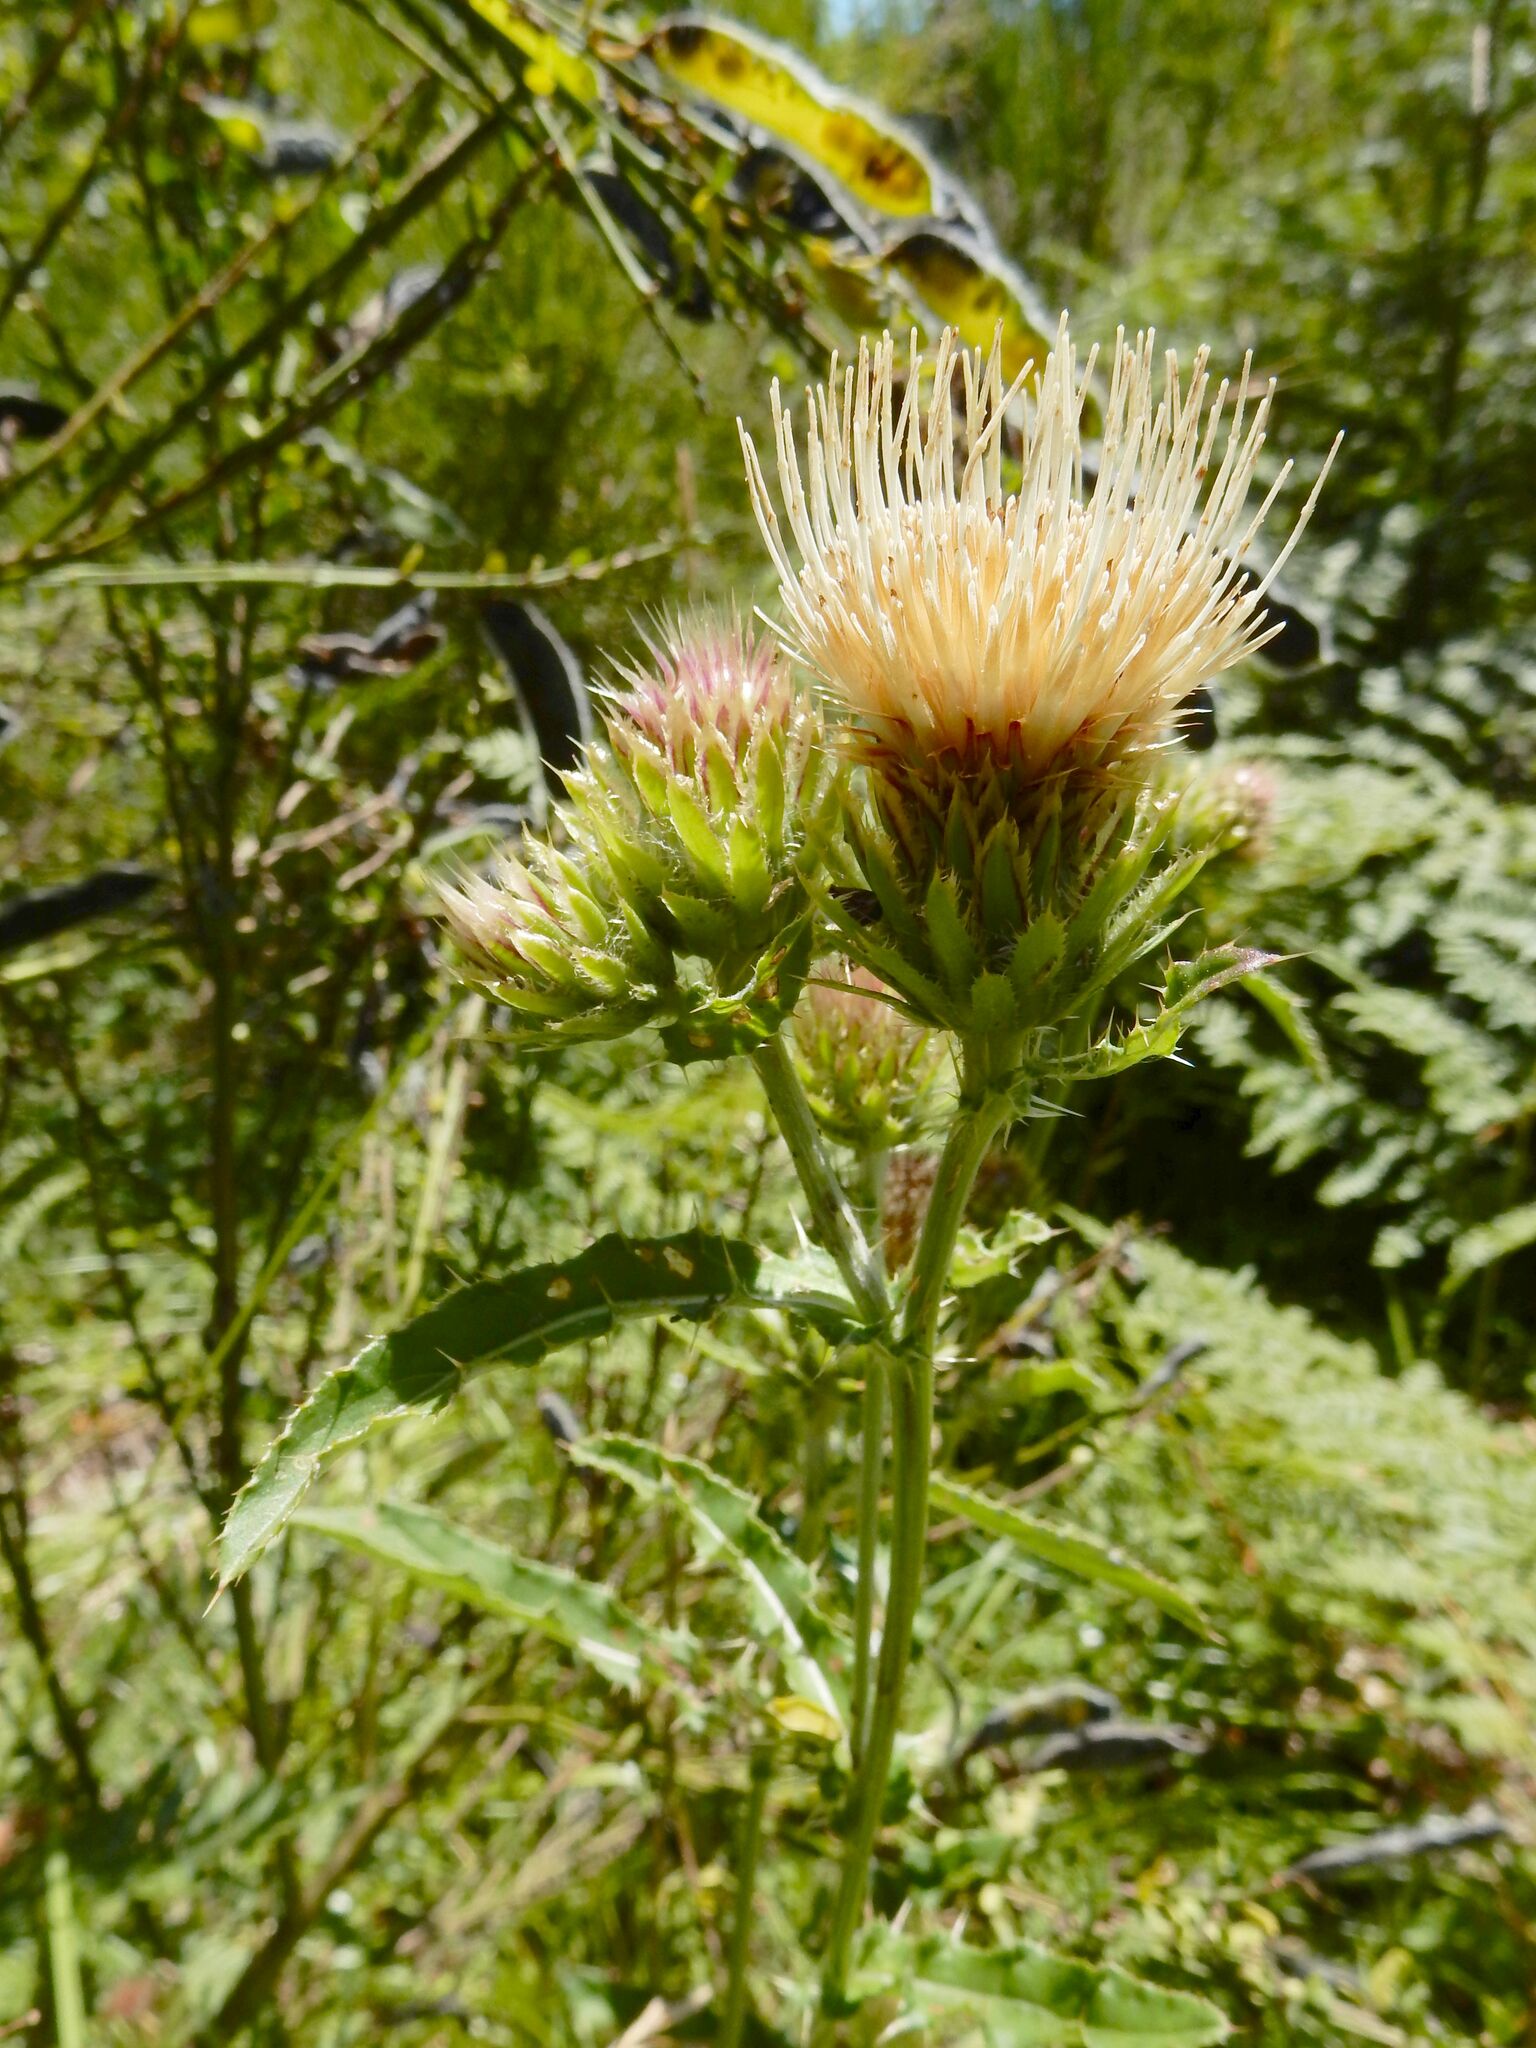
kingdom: Plantae
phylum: Tracheophyta
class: Magnoliopsida
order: Asterales
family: Asteraceae
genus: Cirsium
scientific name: Cirsium remotifolium
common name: Remote-leaf thistle
